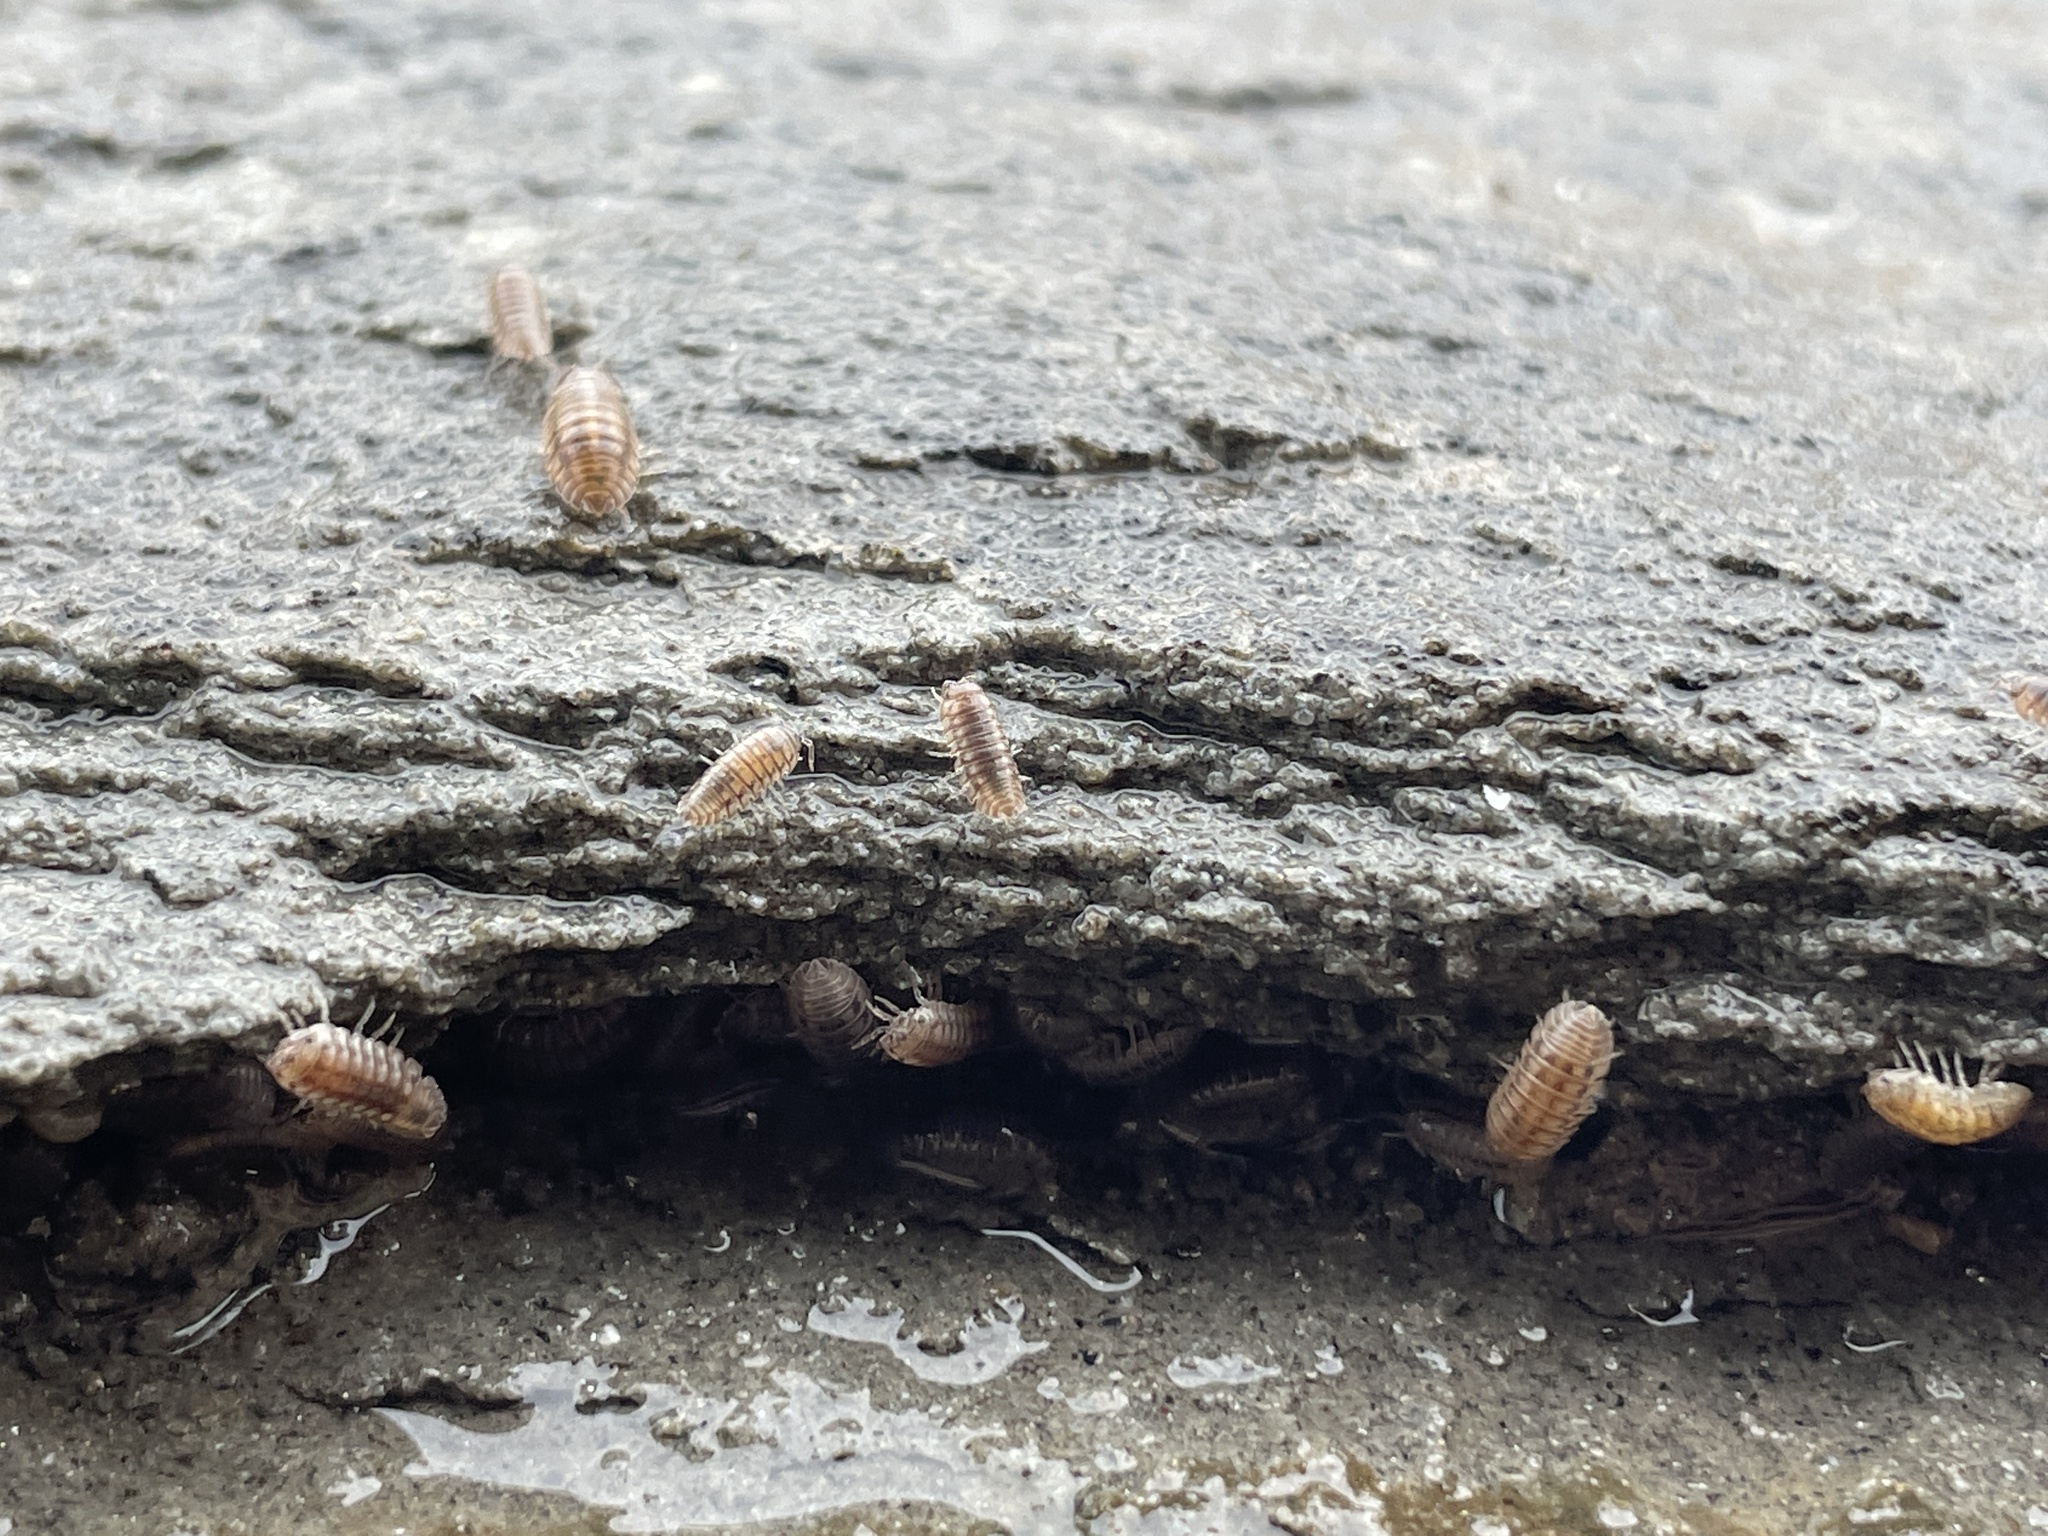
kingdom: Animalia
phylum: Arthropoda
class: Malacostraca
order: Isopoda
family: Armadillidiidae
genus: Armadillidium
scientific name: Armadillidium nasatum
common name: Isopod
